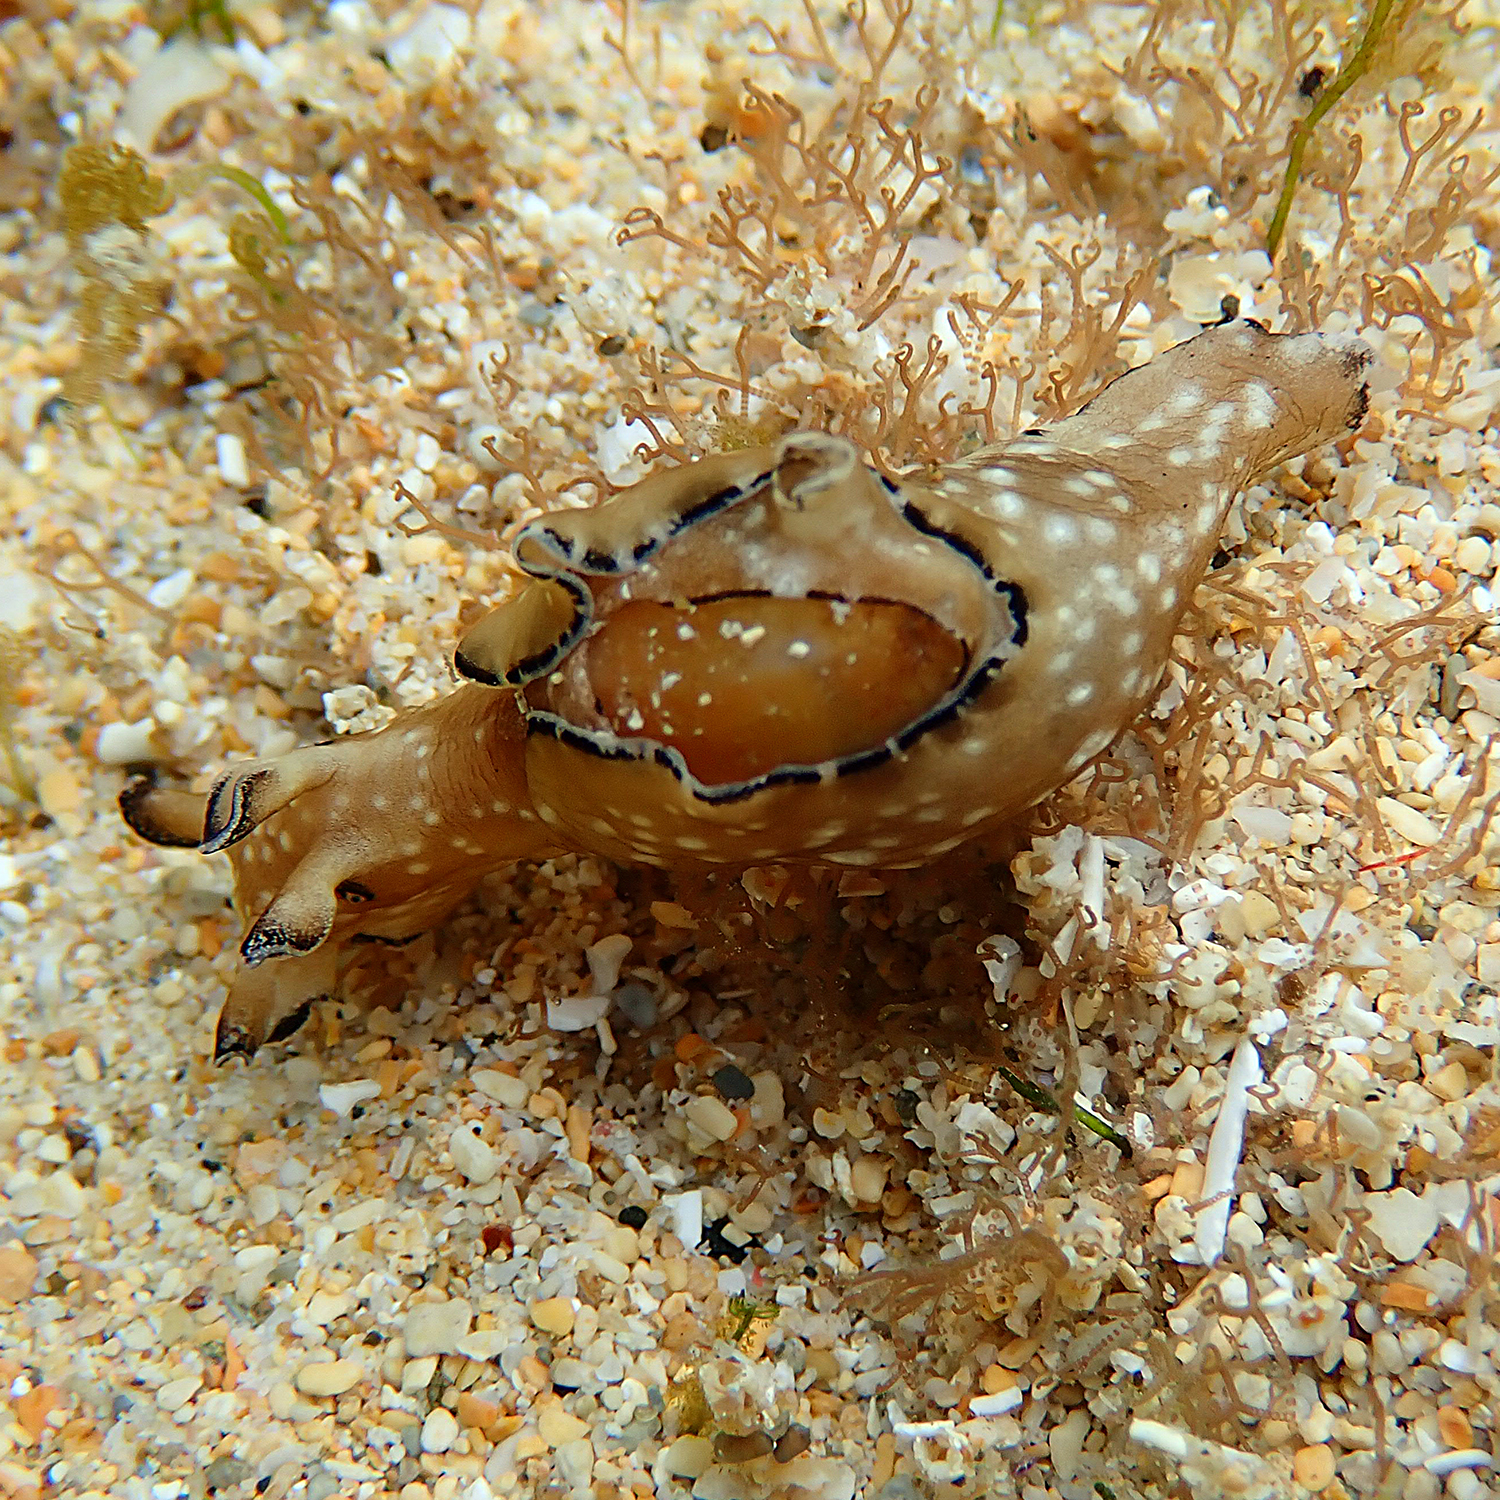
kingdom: Animalia
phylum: Mollusca
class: Gastropoda
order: Aplysiida
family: Aplysiidae
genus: Aplysia
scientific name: Aplysia concava
